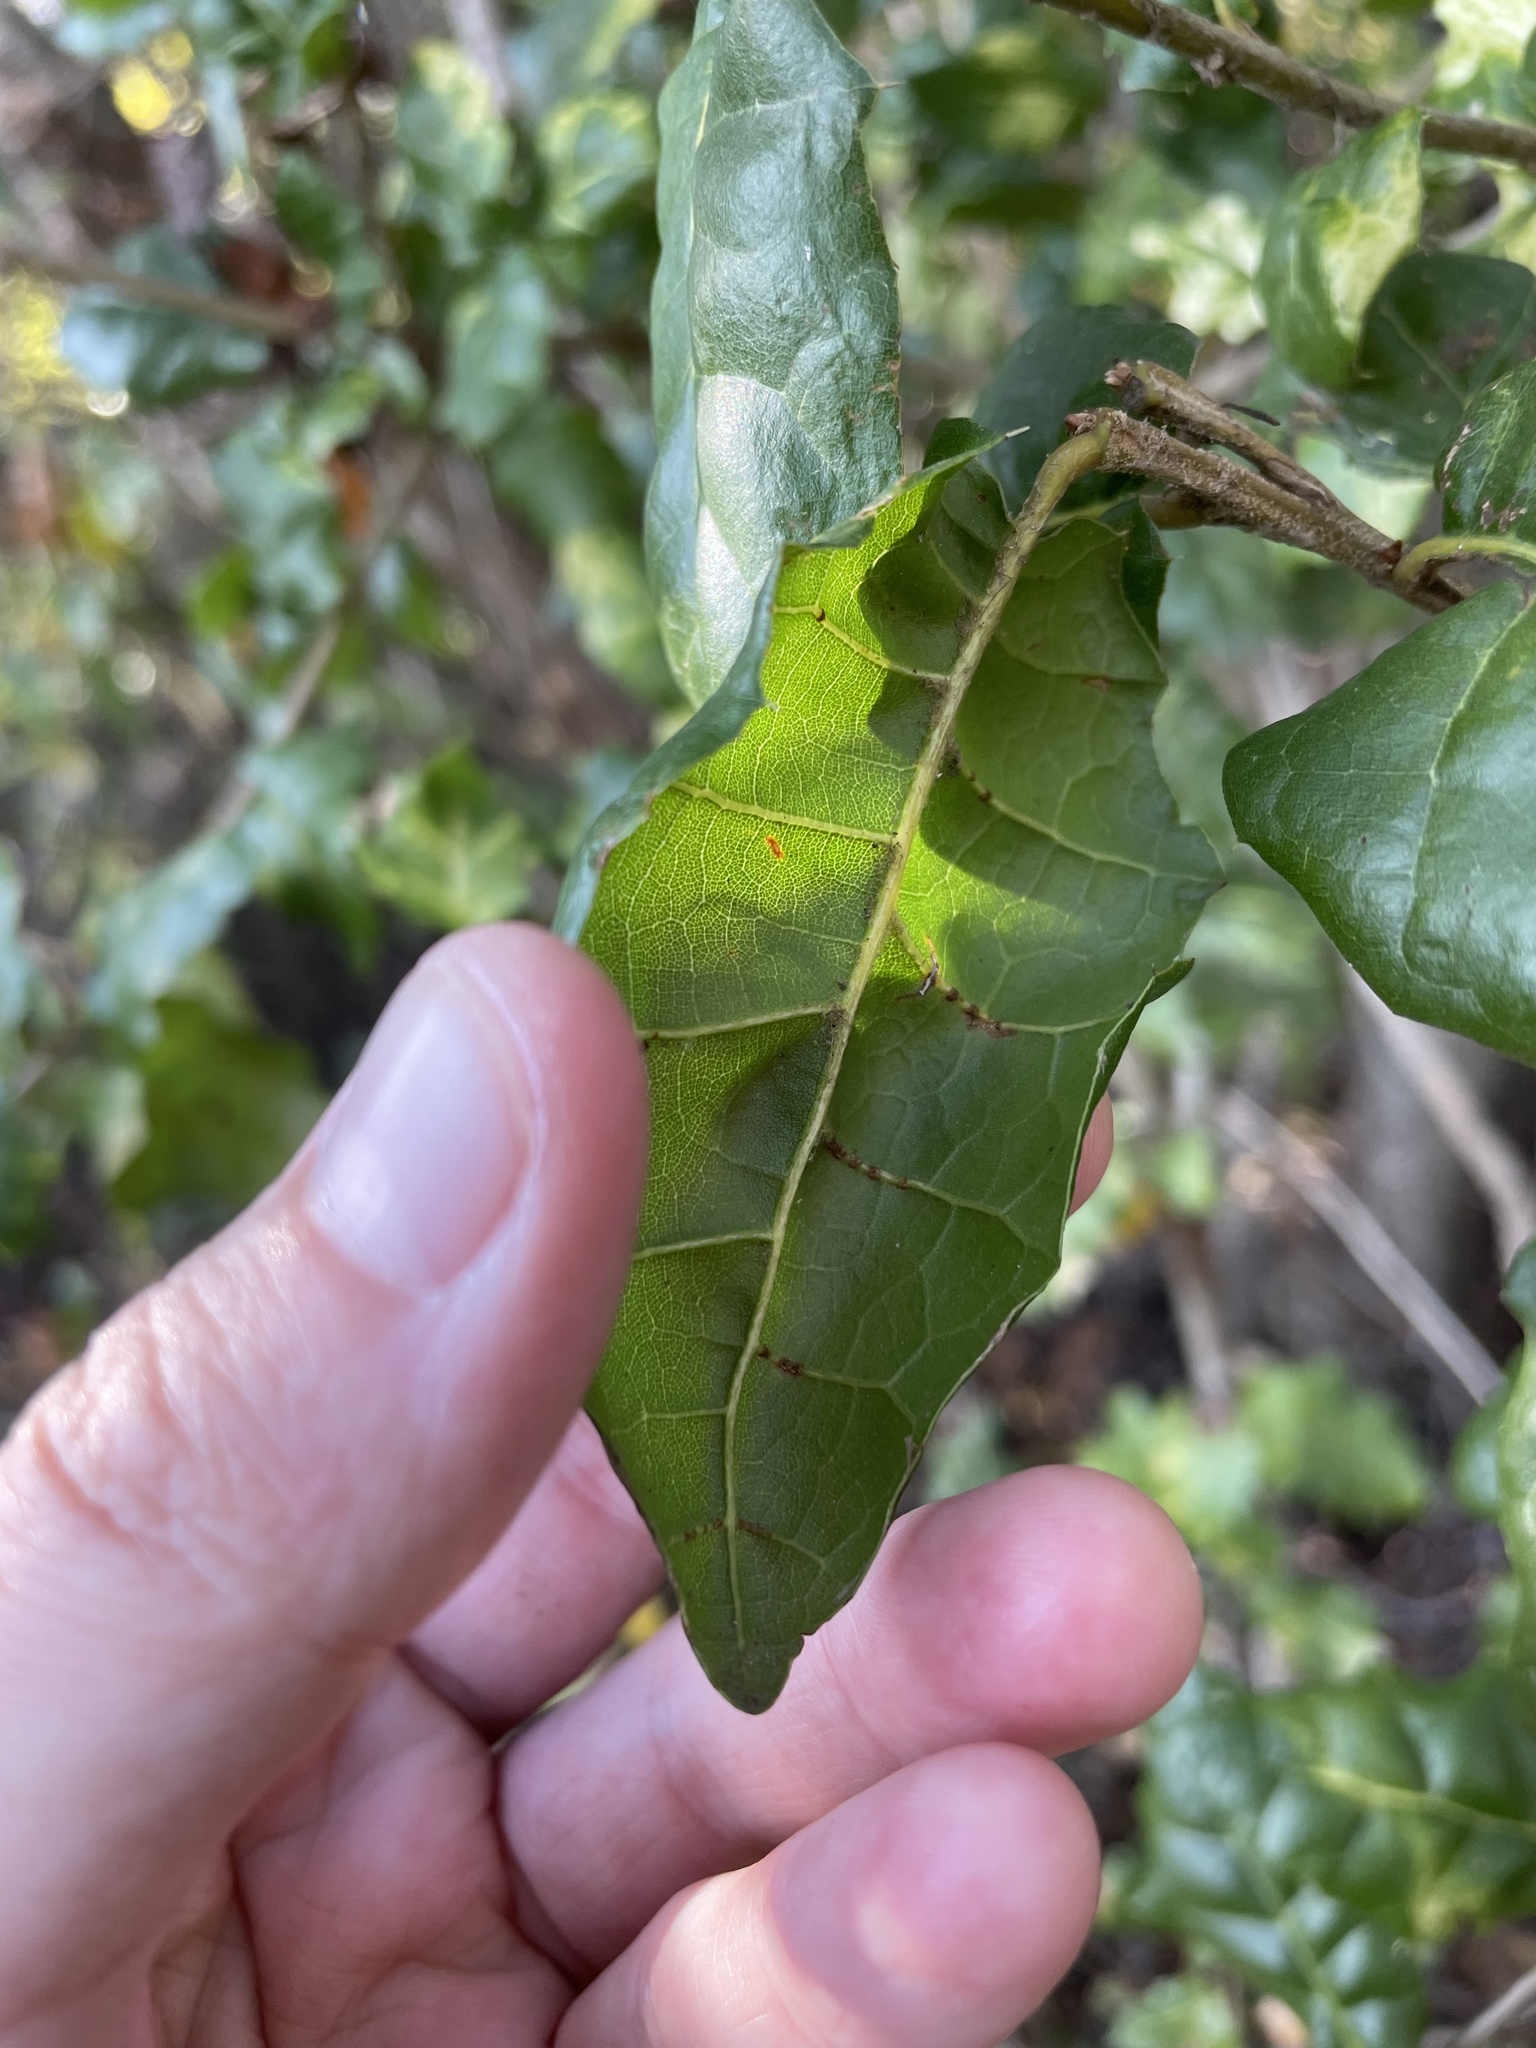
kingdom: Plantae
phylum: Tracheophyta
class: Magnoliopsida
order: Fagales
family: Fagaceae
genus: Quercus
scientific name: Quercus agrifolia
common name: California live oak
